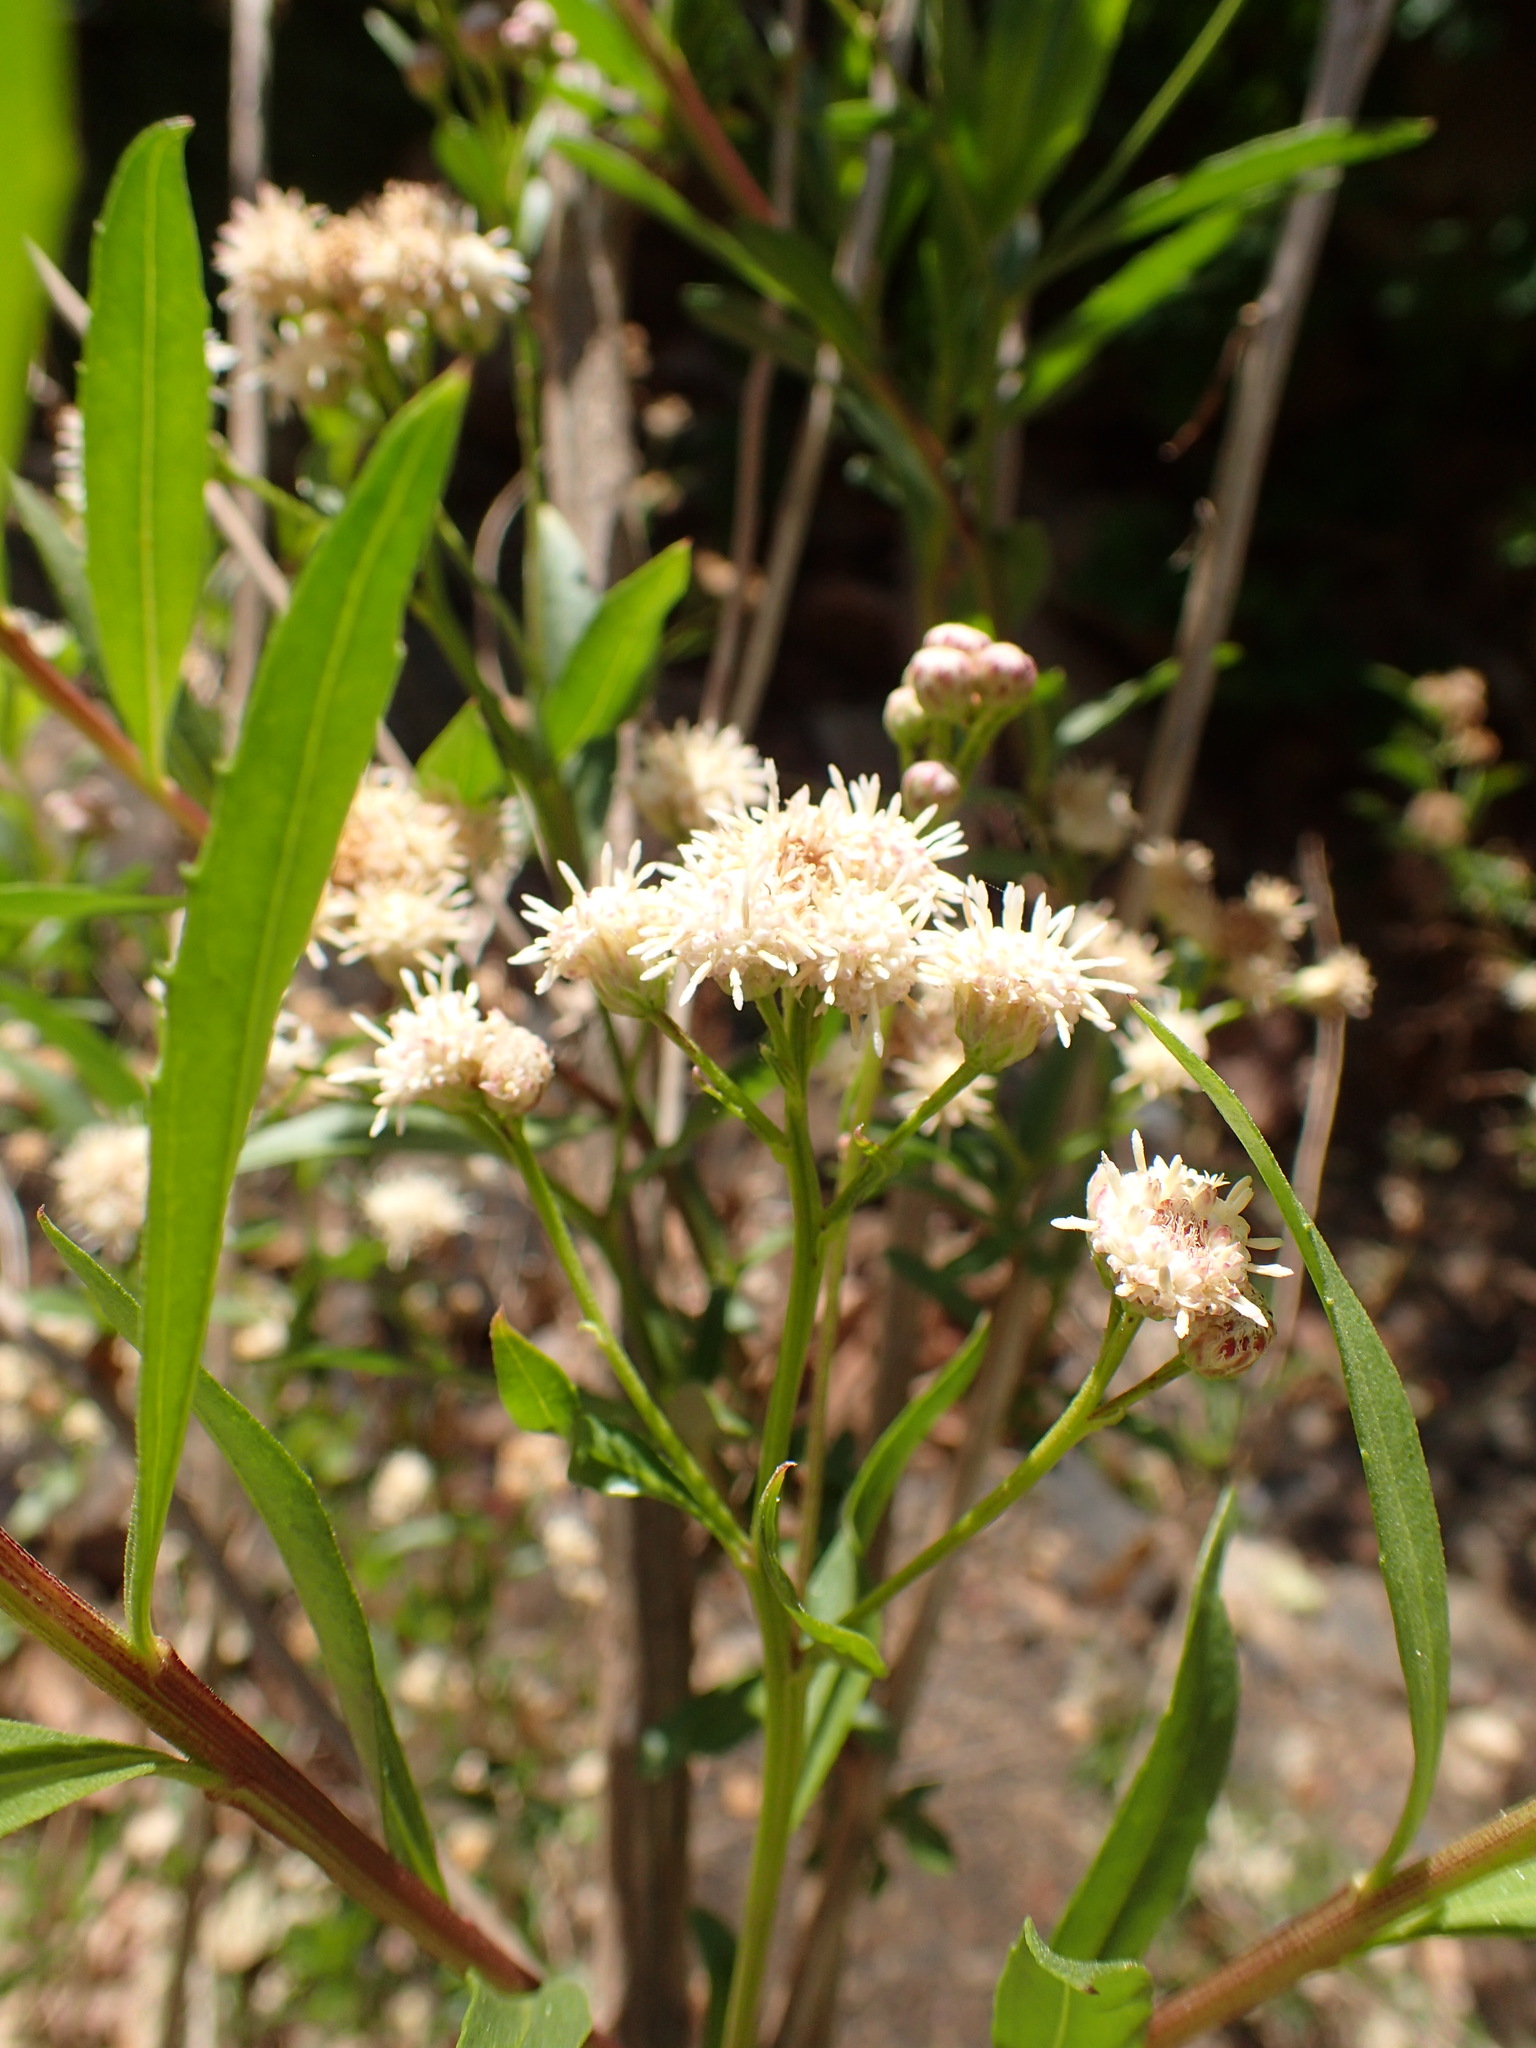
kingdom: Plantae
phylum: Tracheophyta
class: Magnoliopsida
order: Asterales
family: Asteraceae
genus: Baccharis
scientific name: Baccharis salicifolia
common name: Sticky baccharis
